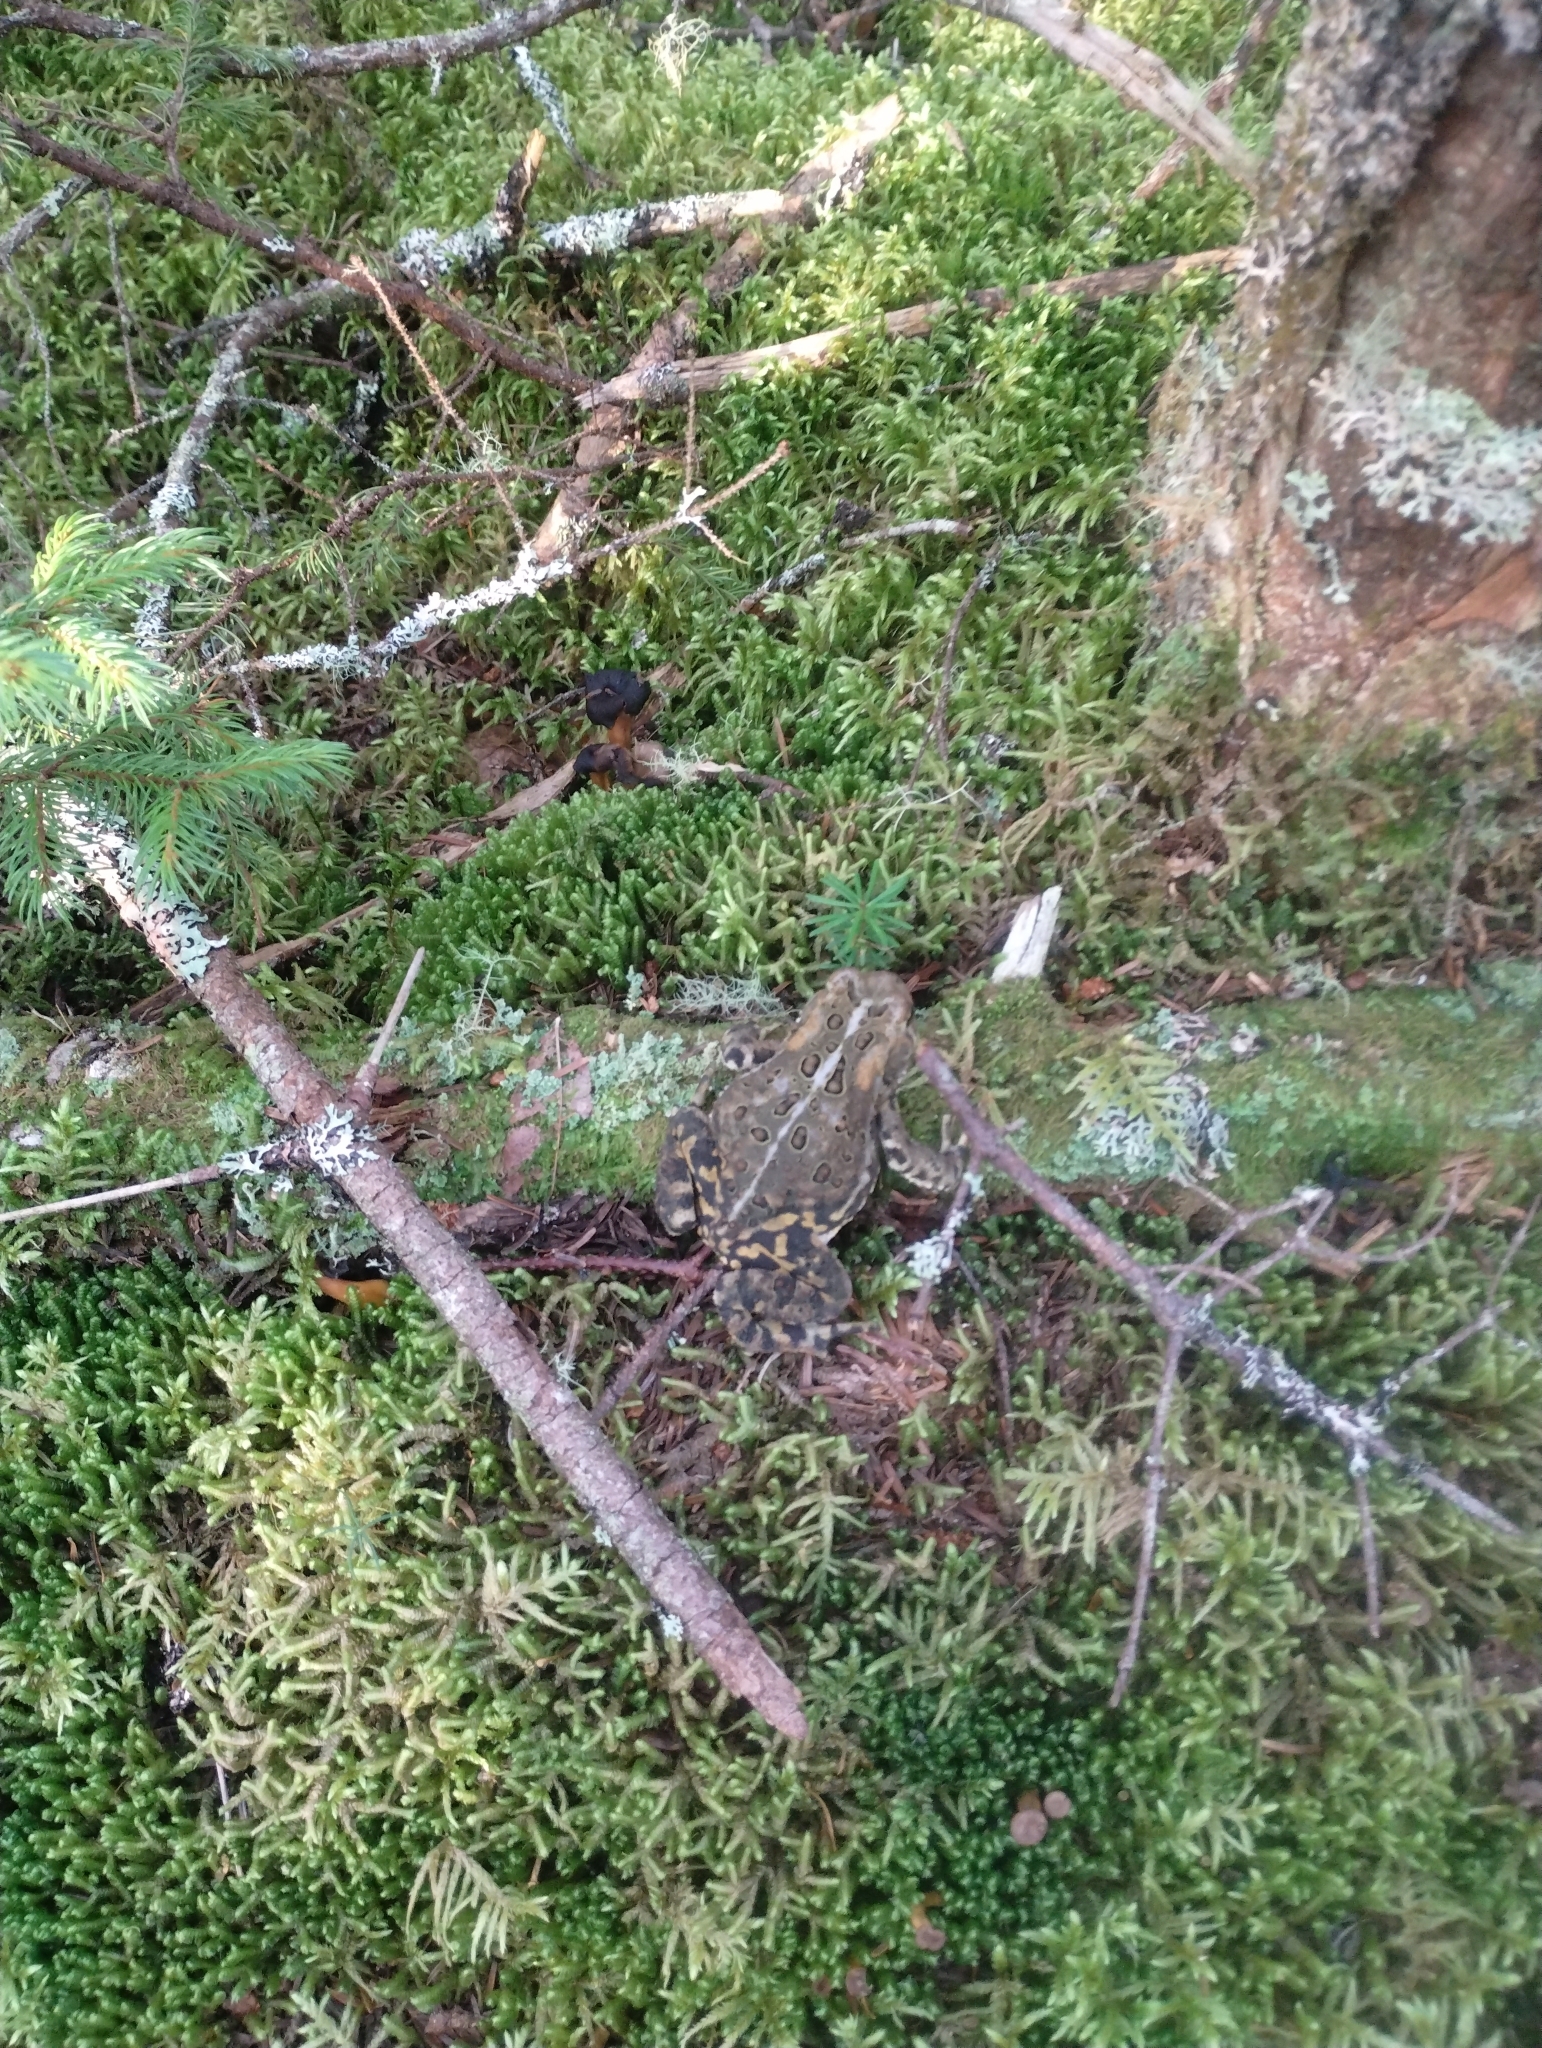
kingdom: Animalia
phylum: Chordata
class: Amphibia
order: Anura
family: Bufonidae
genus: Anaxyrus
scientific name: Anaxyrus americanus
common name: American toad
